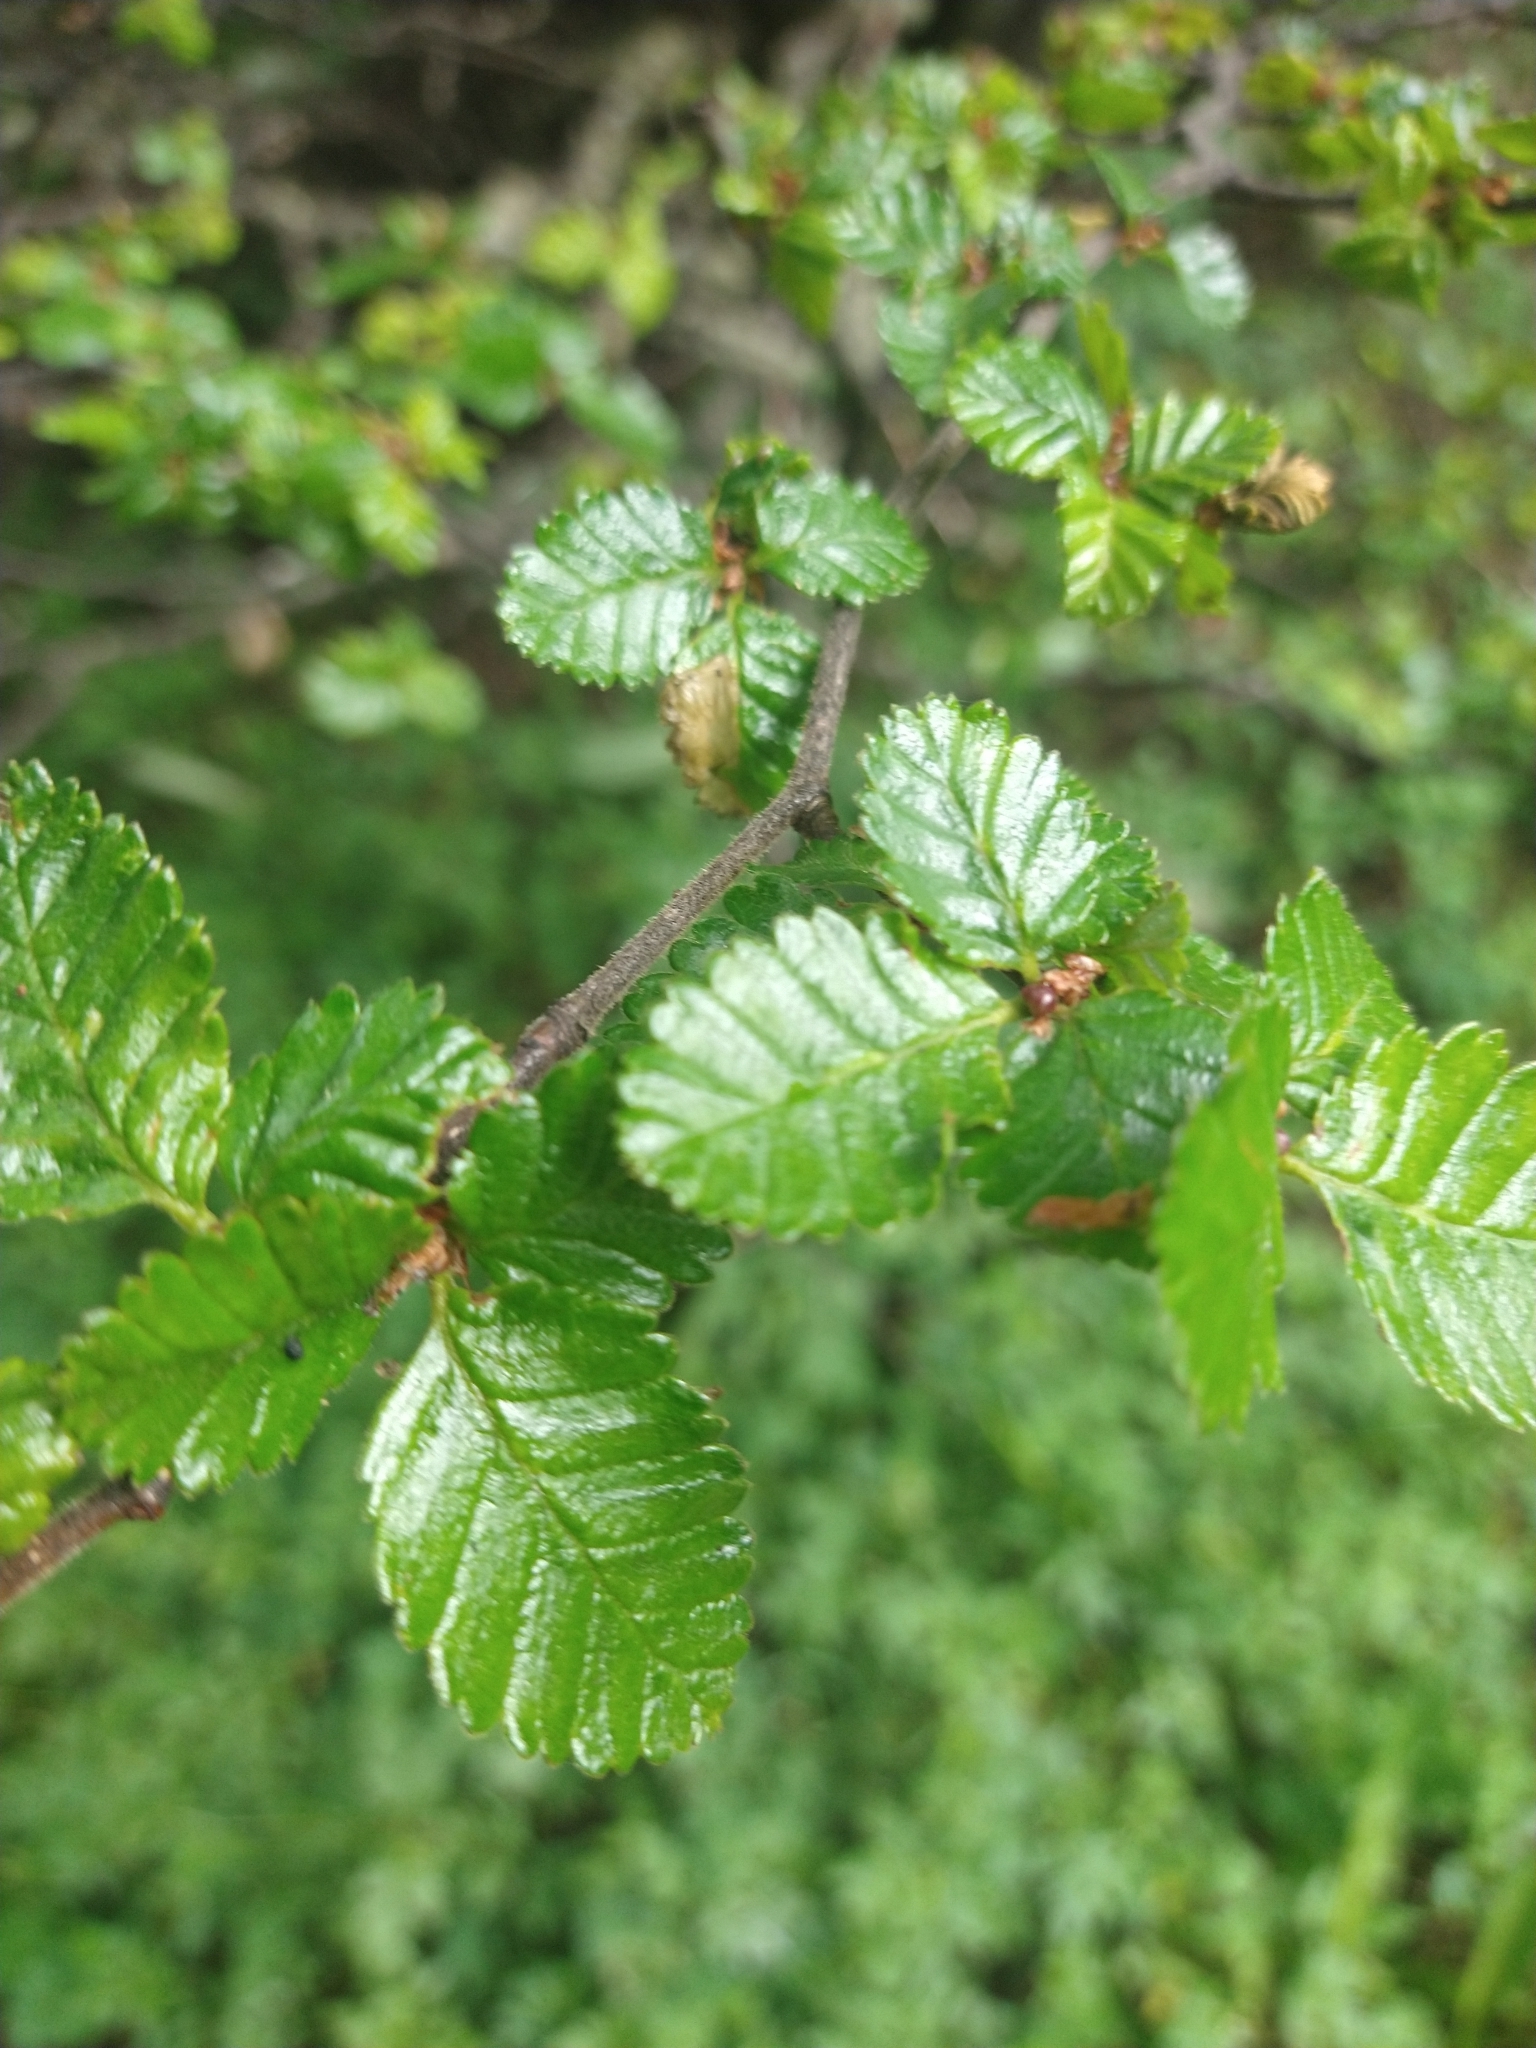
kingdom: Plantae
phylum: Tracheophyta
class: Magnoliopsida
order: Fagales
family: Nothofagaceae
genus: Nothofagus
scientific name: Nothofagus pumilio
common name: Lenga beech
